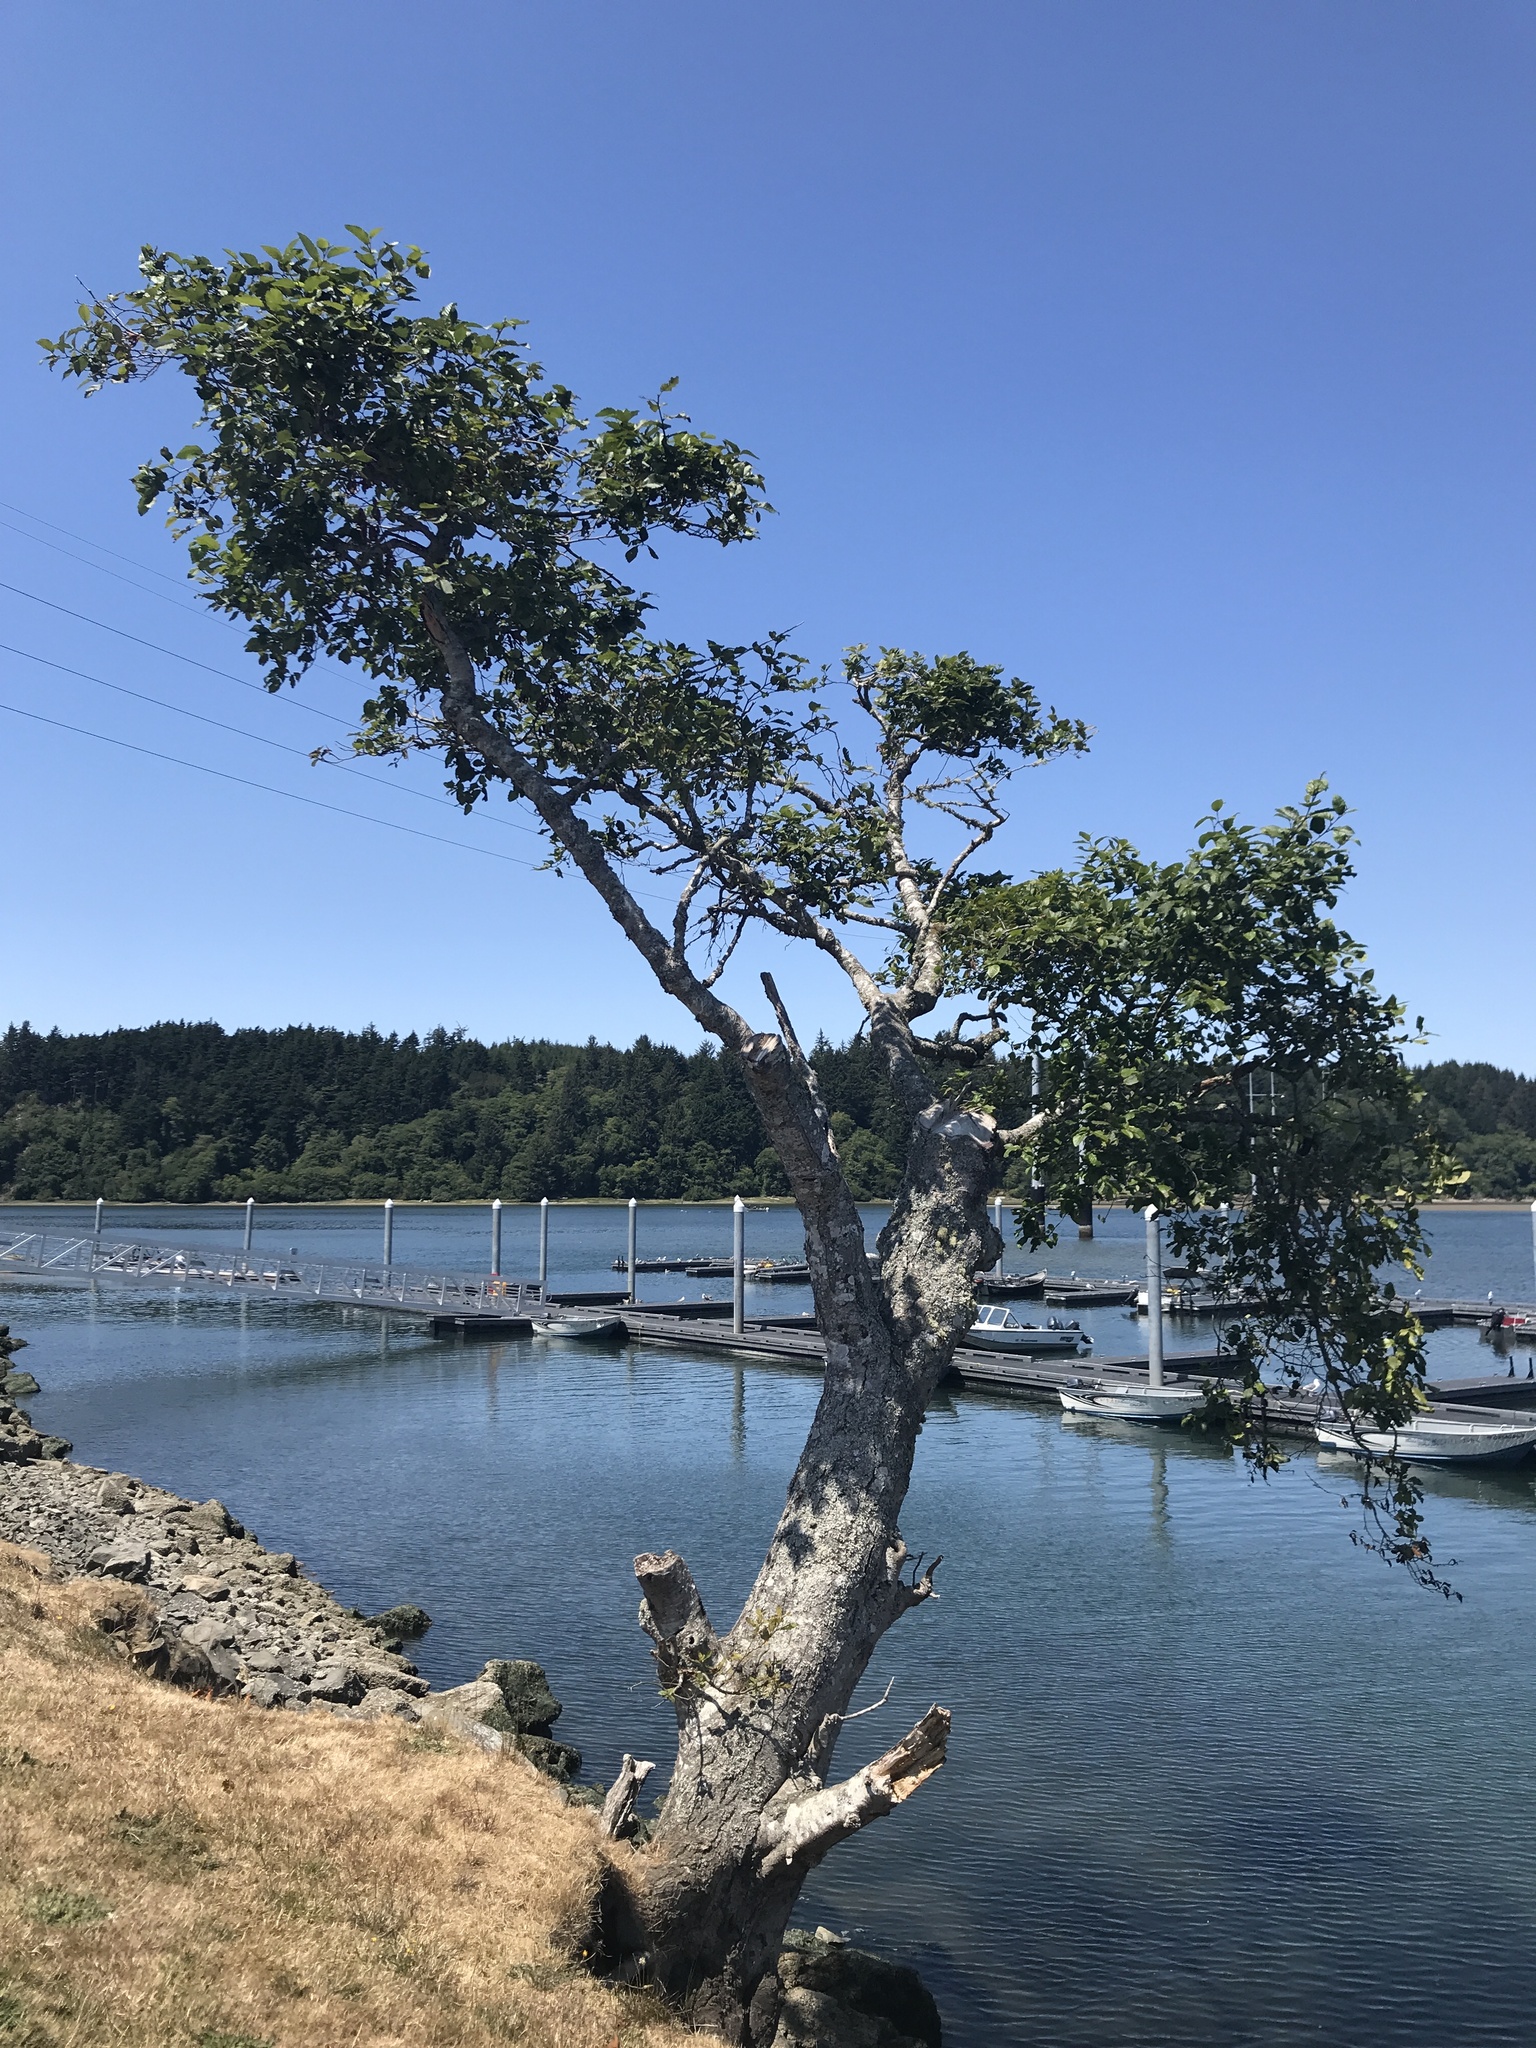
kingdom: Plantae
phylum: Tracheophyta
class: Magnoliopsida
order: Fagales
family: Betulaceae
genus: Alnus
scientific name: Alnus rubra
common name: Red alder
